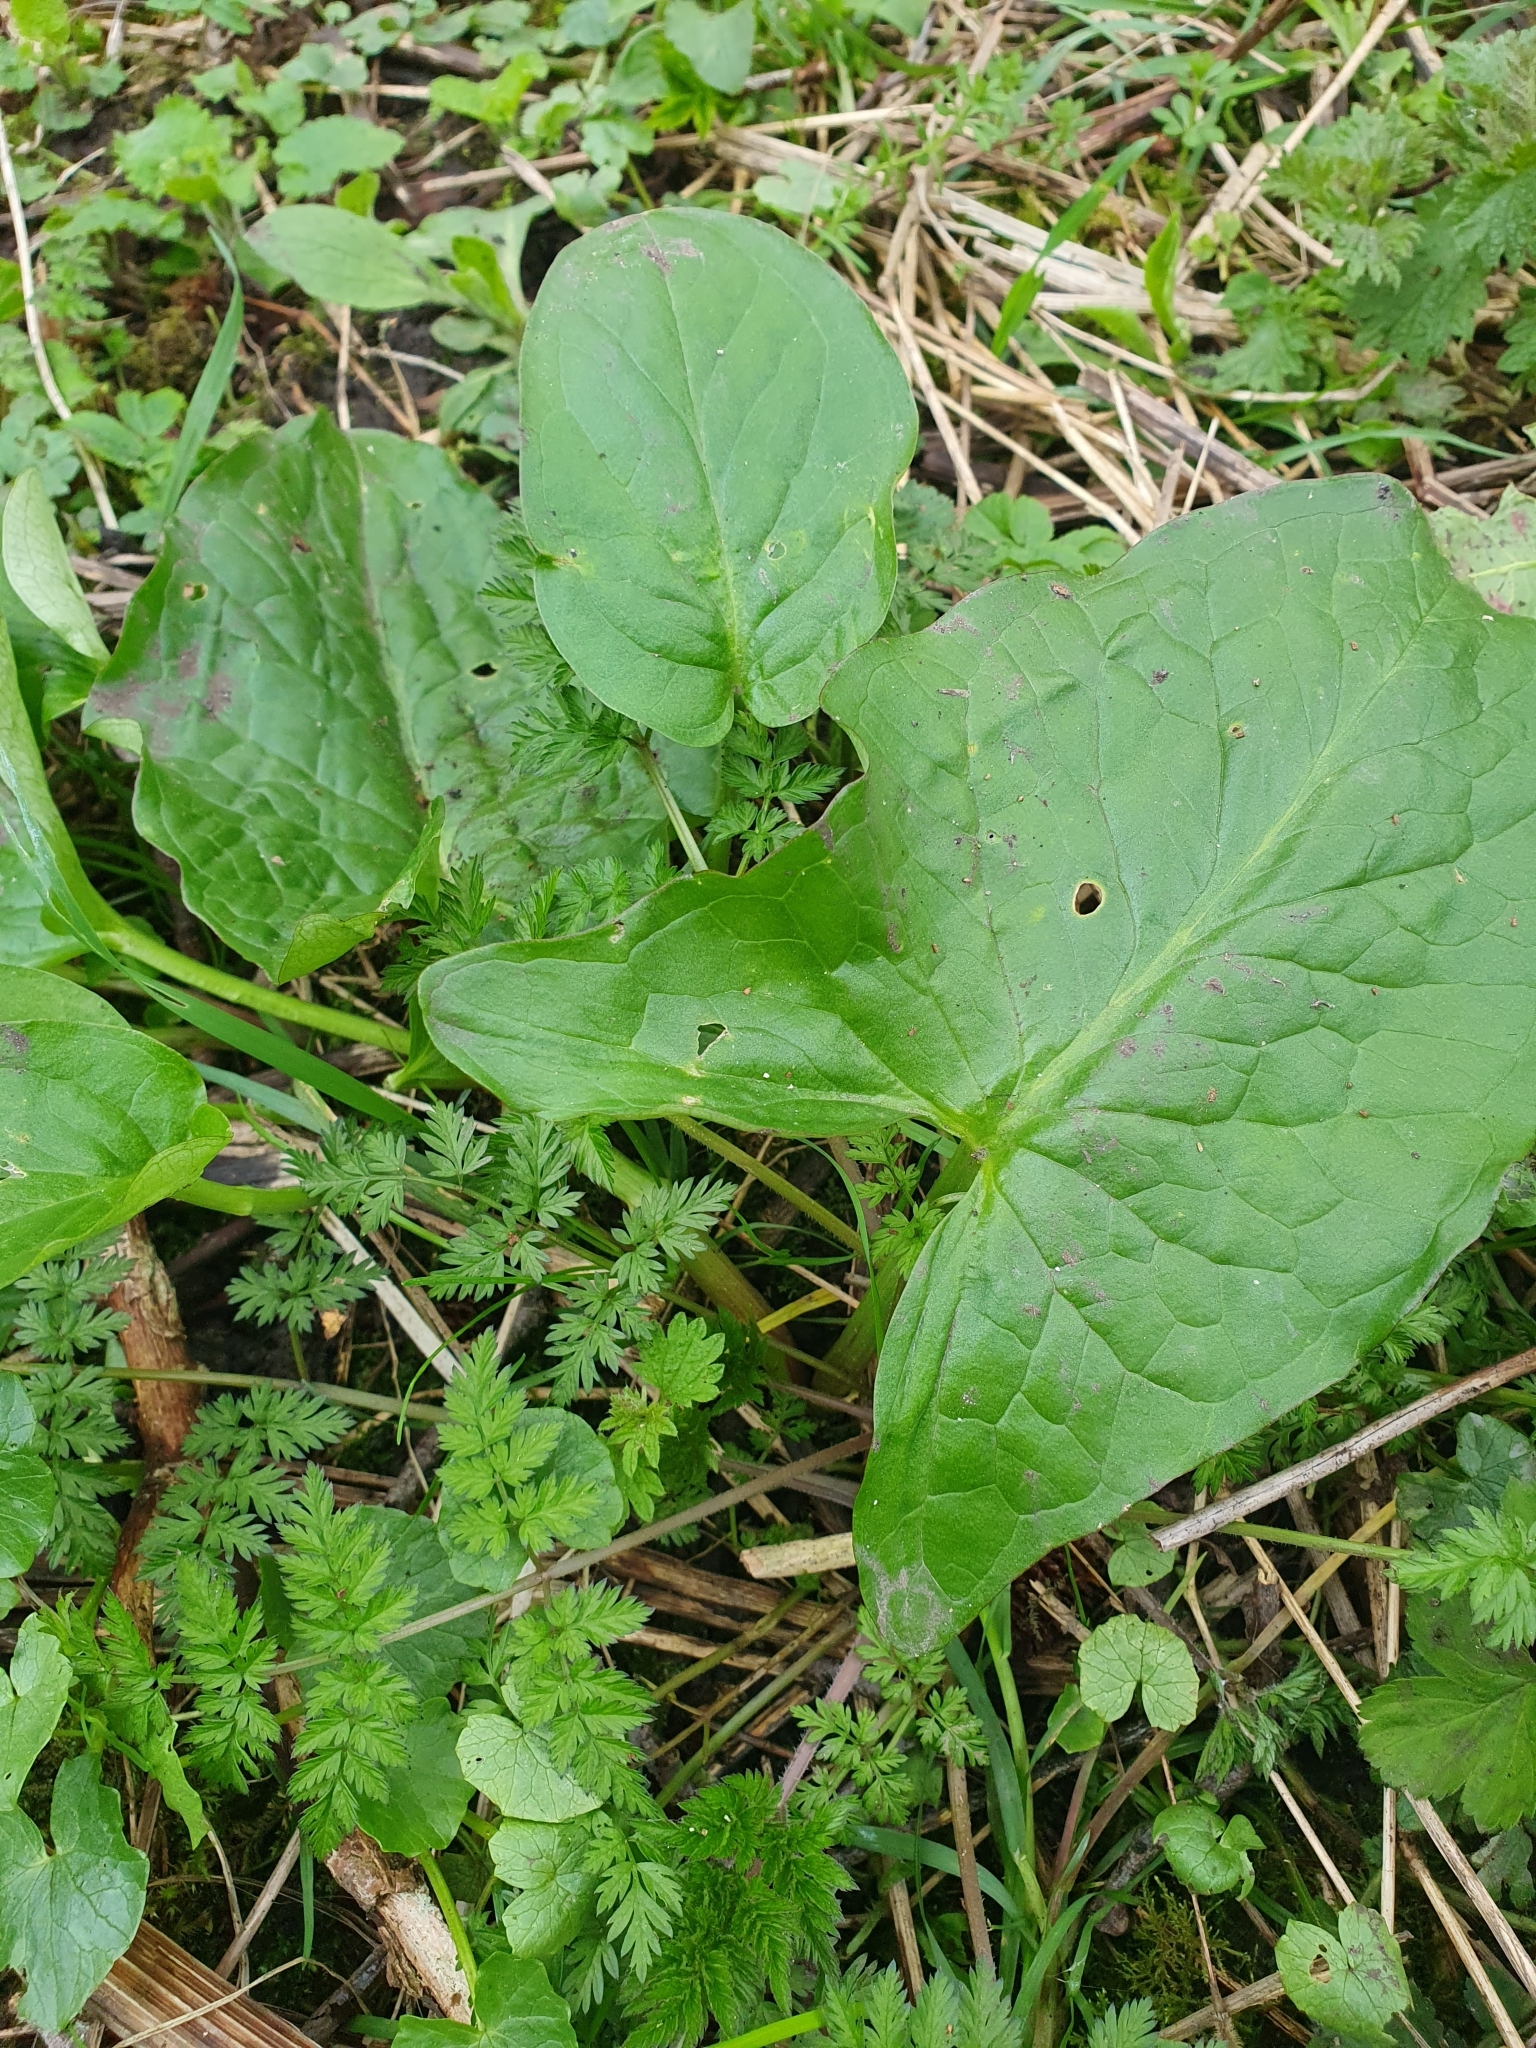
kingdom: Plantae
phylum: Tracheophyta
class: Liliopsida
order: Alismatales
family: Araceae
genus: Arum
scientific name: Arum maculatum
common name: Lords-and-ladies
